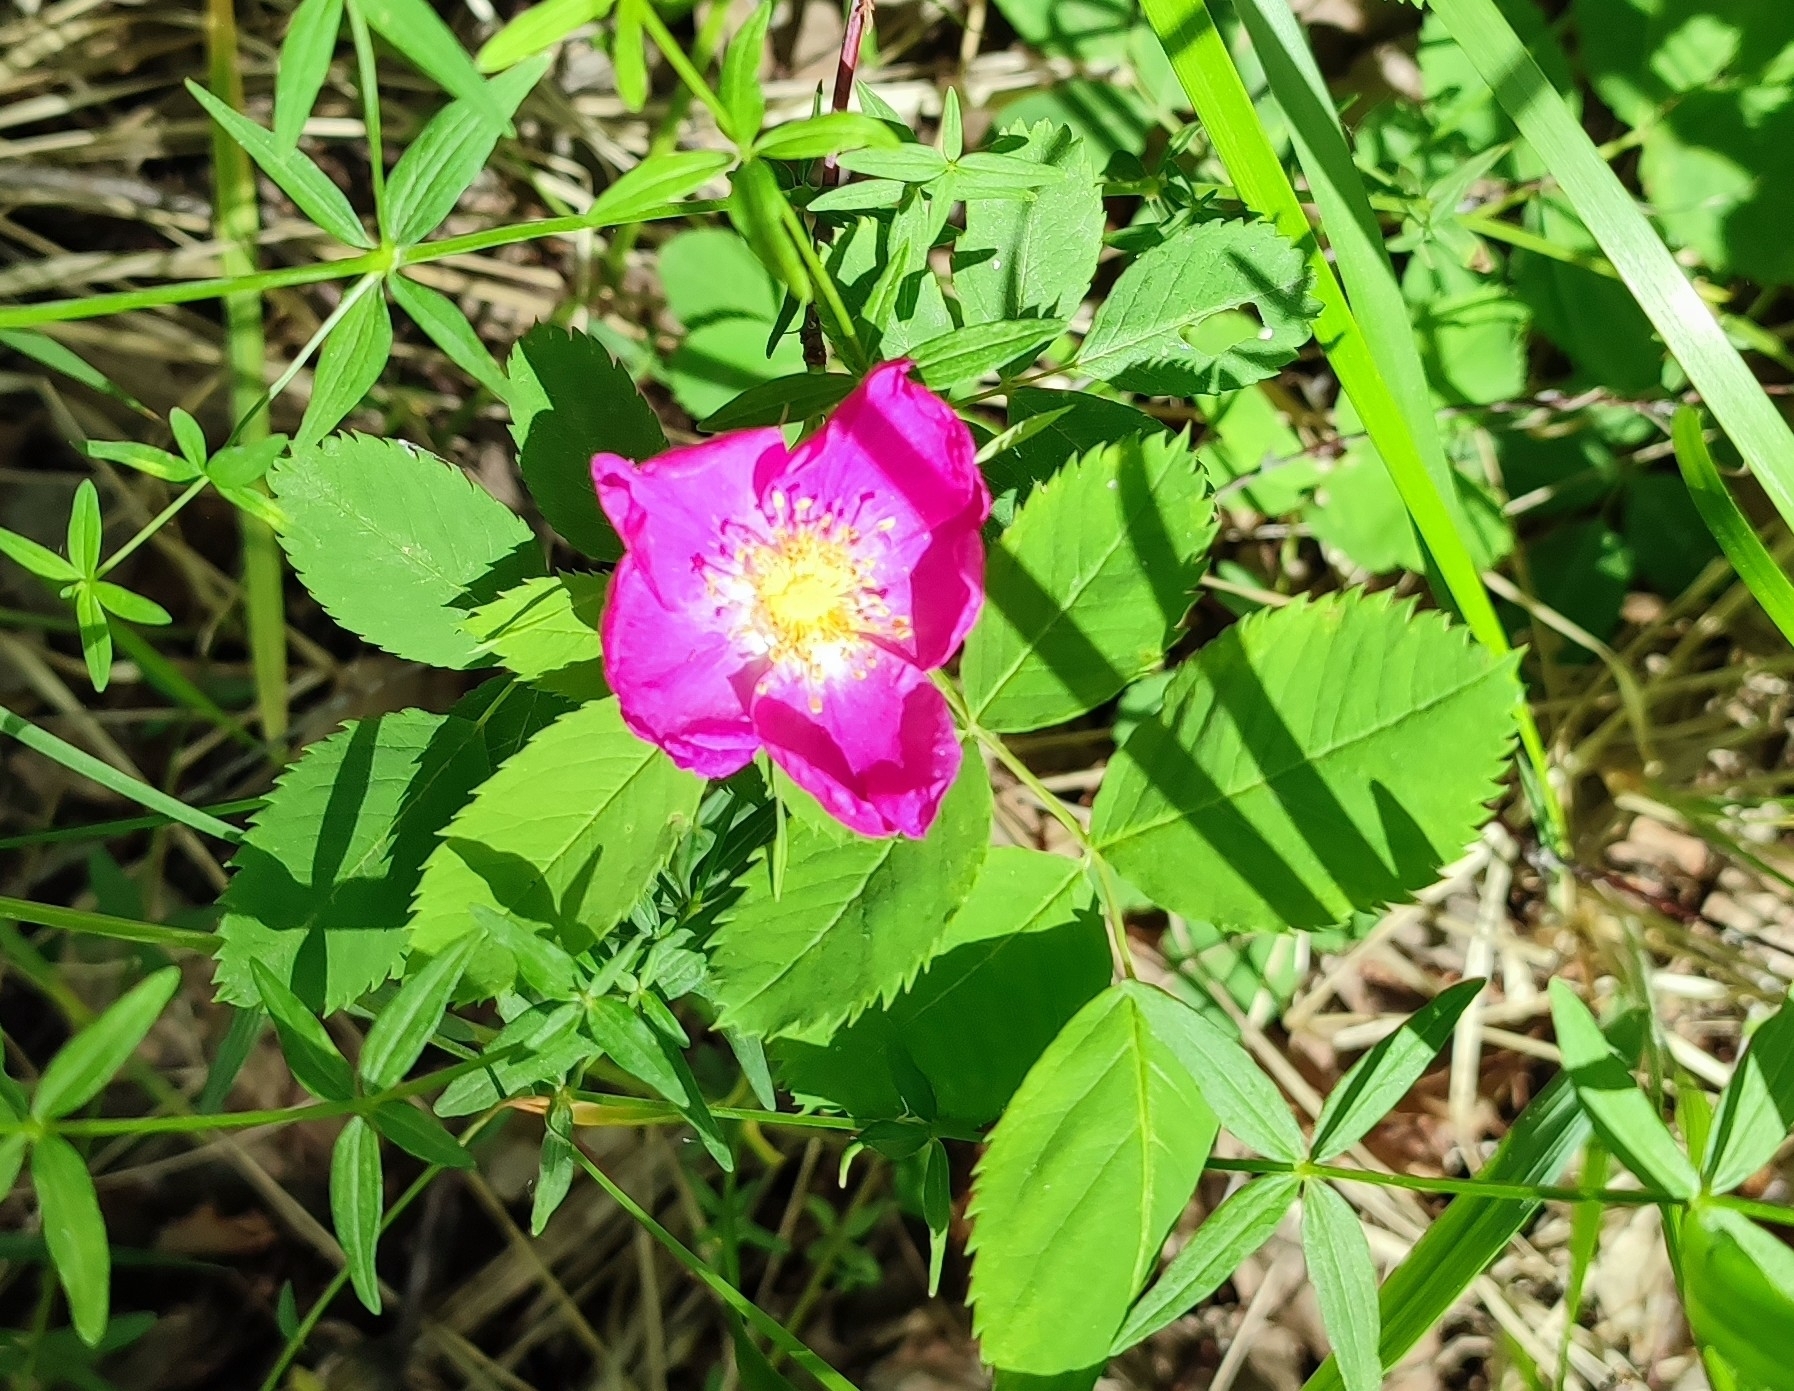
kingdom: Plantae
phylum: Tracheophyta
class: Magnoliopsida
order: Rosales
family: Rosaceae
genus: Rosa
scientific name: Rosa glabrifolia
